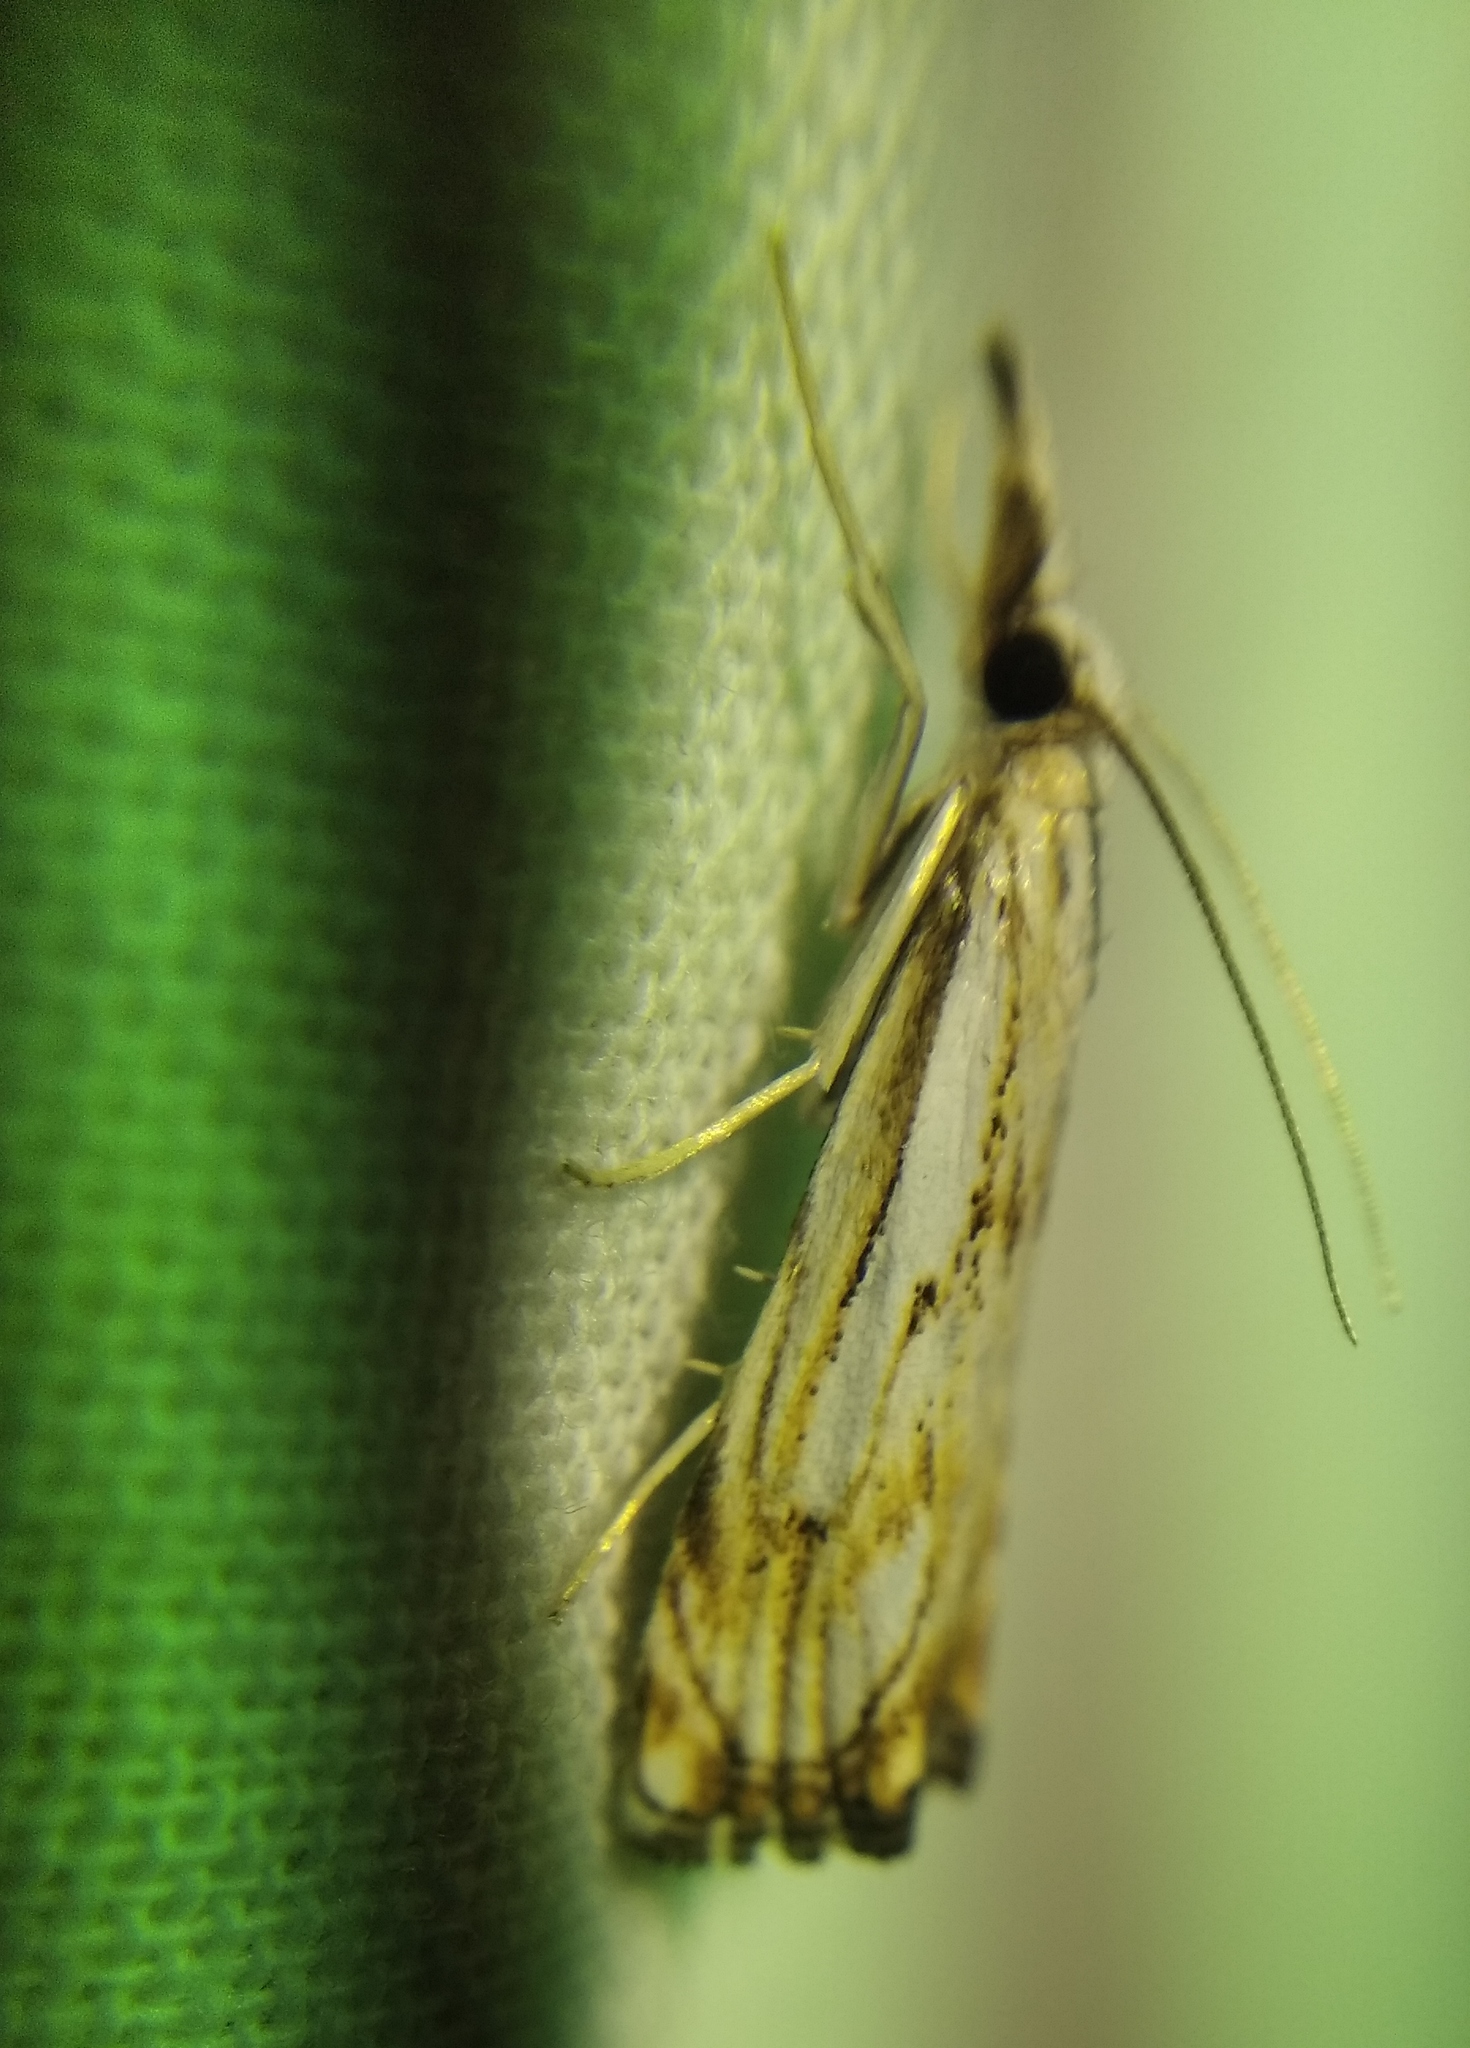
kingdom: Animalia
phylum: Arthropoda
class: Insecta
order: Lepidoptera
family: Crambidae
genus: Catoptria
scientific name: Catoptria falsella
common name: Chequered grass-veneer
